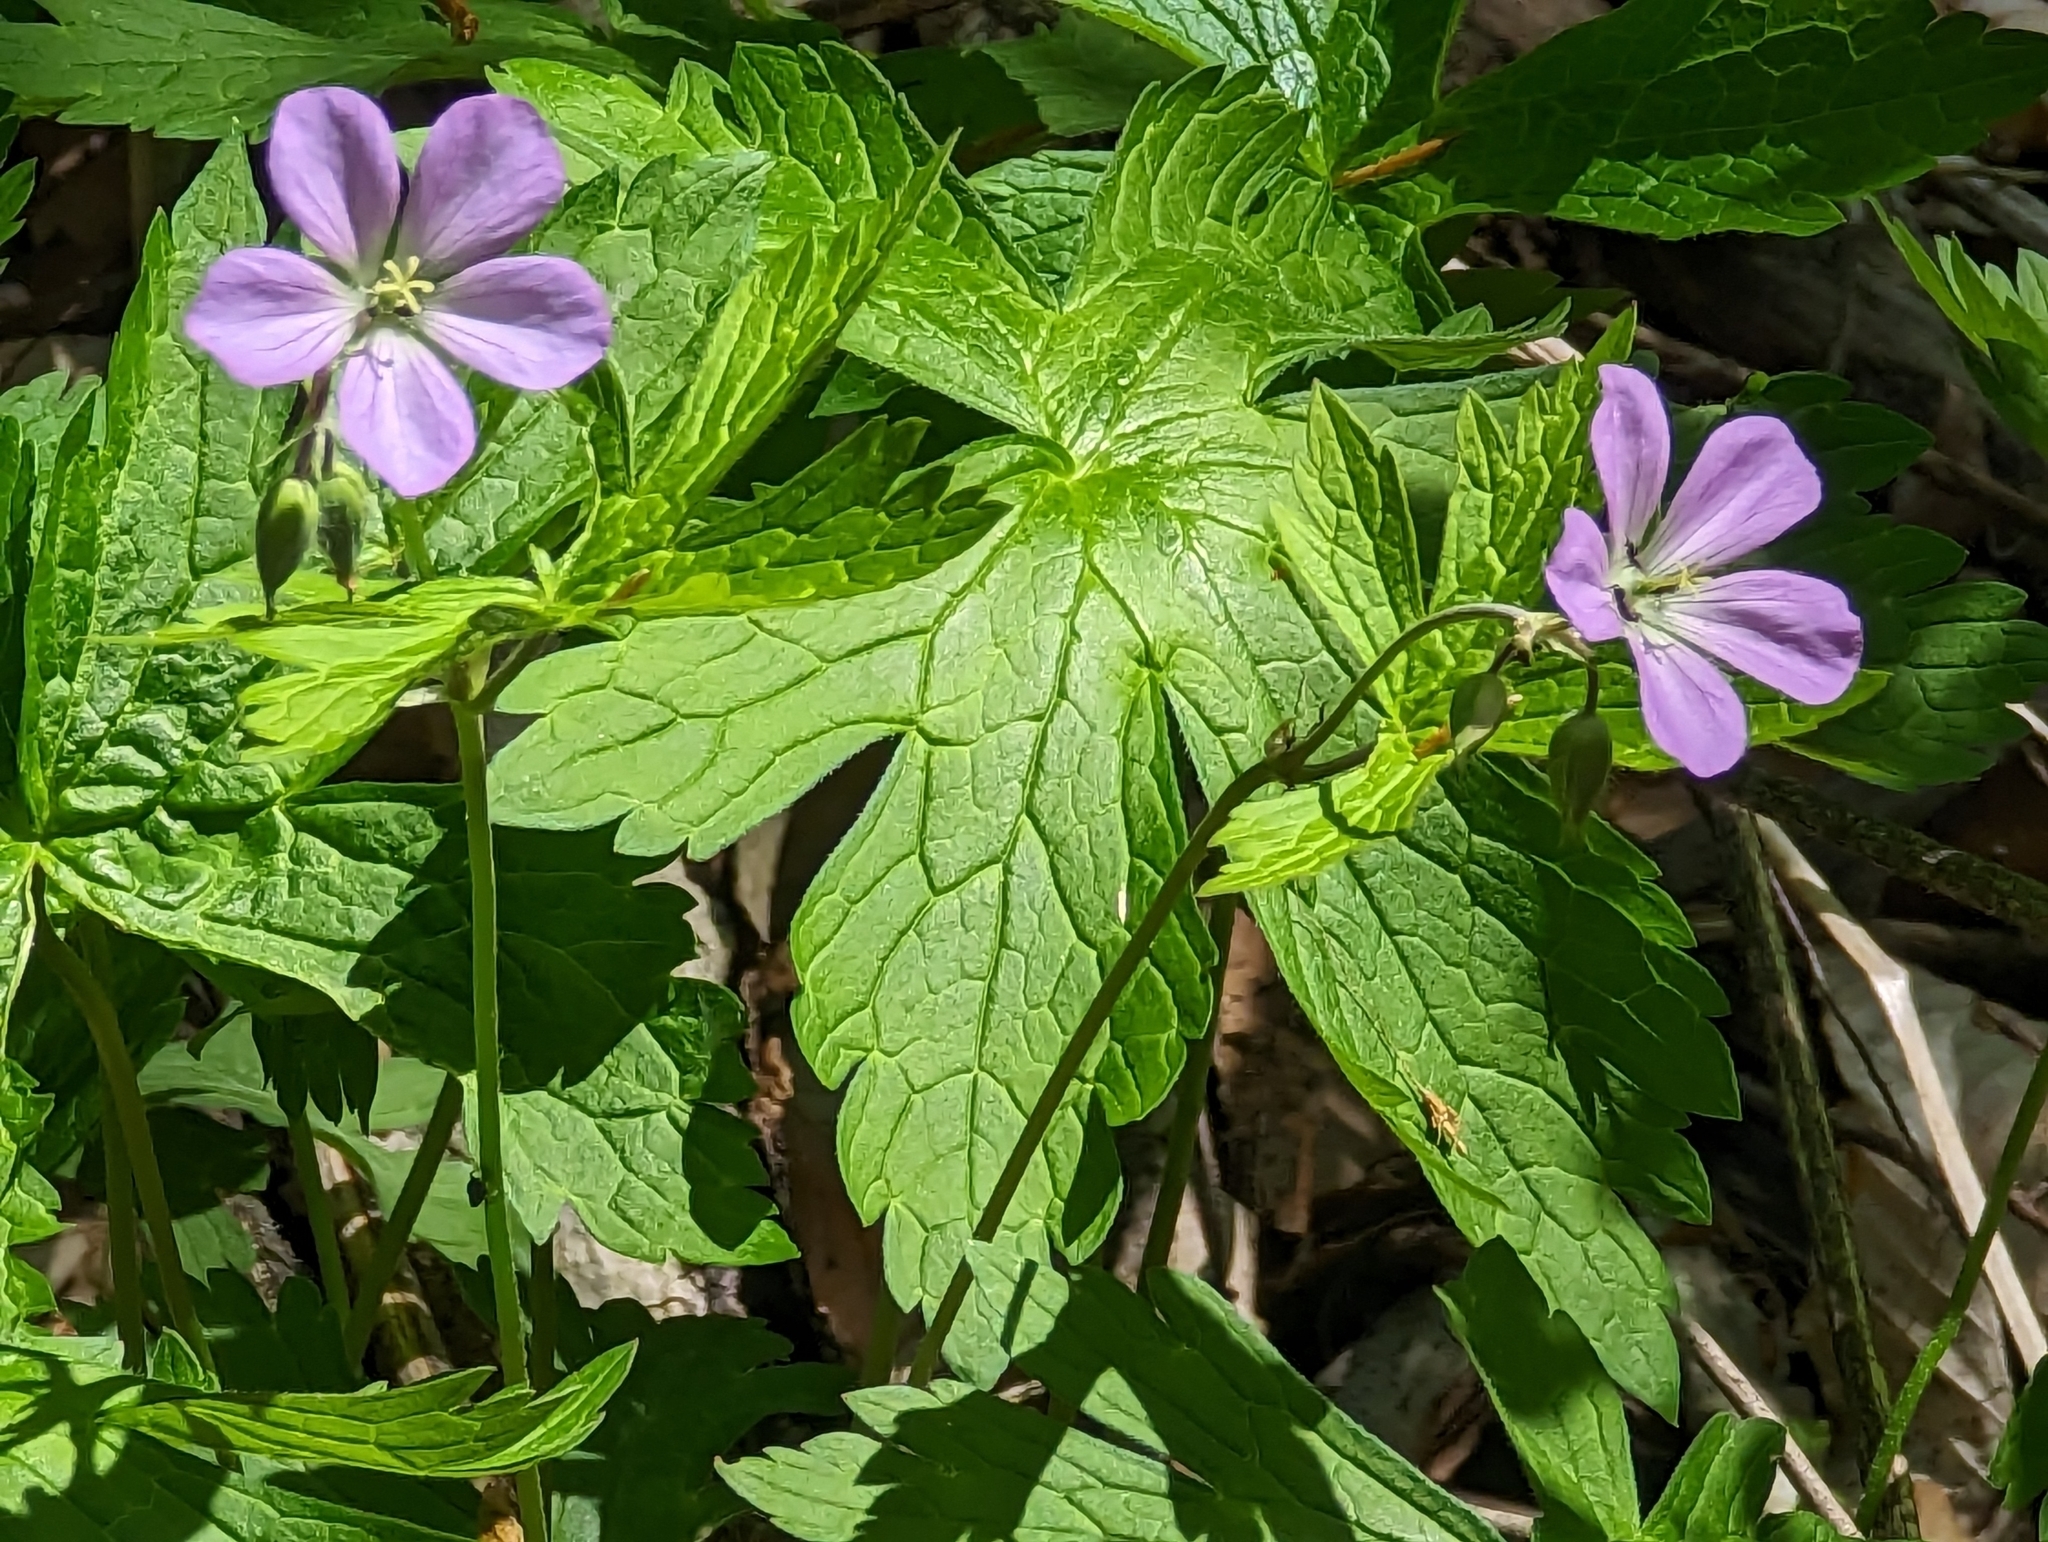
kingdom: Plantae
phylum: Tracheophyta
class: Magnoliopsida
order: Geraniales
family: Geraniaceae
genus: Geranium
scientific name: Geranium maculatum
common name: Spotted geranium
